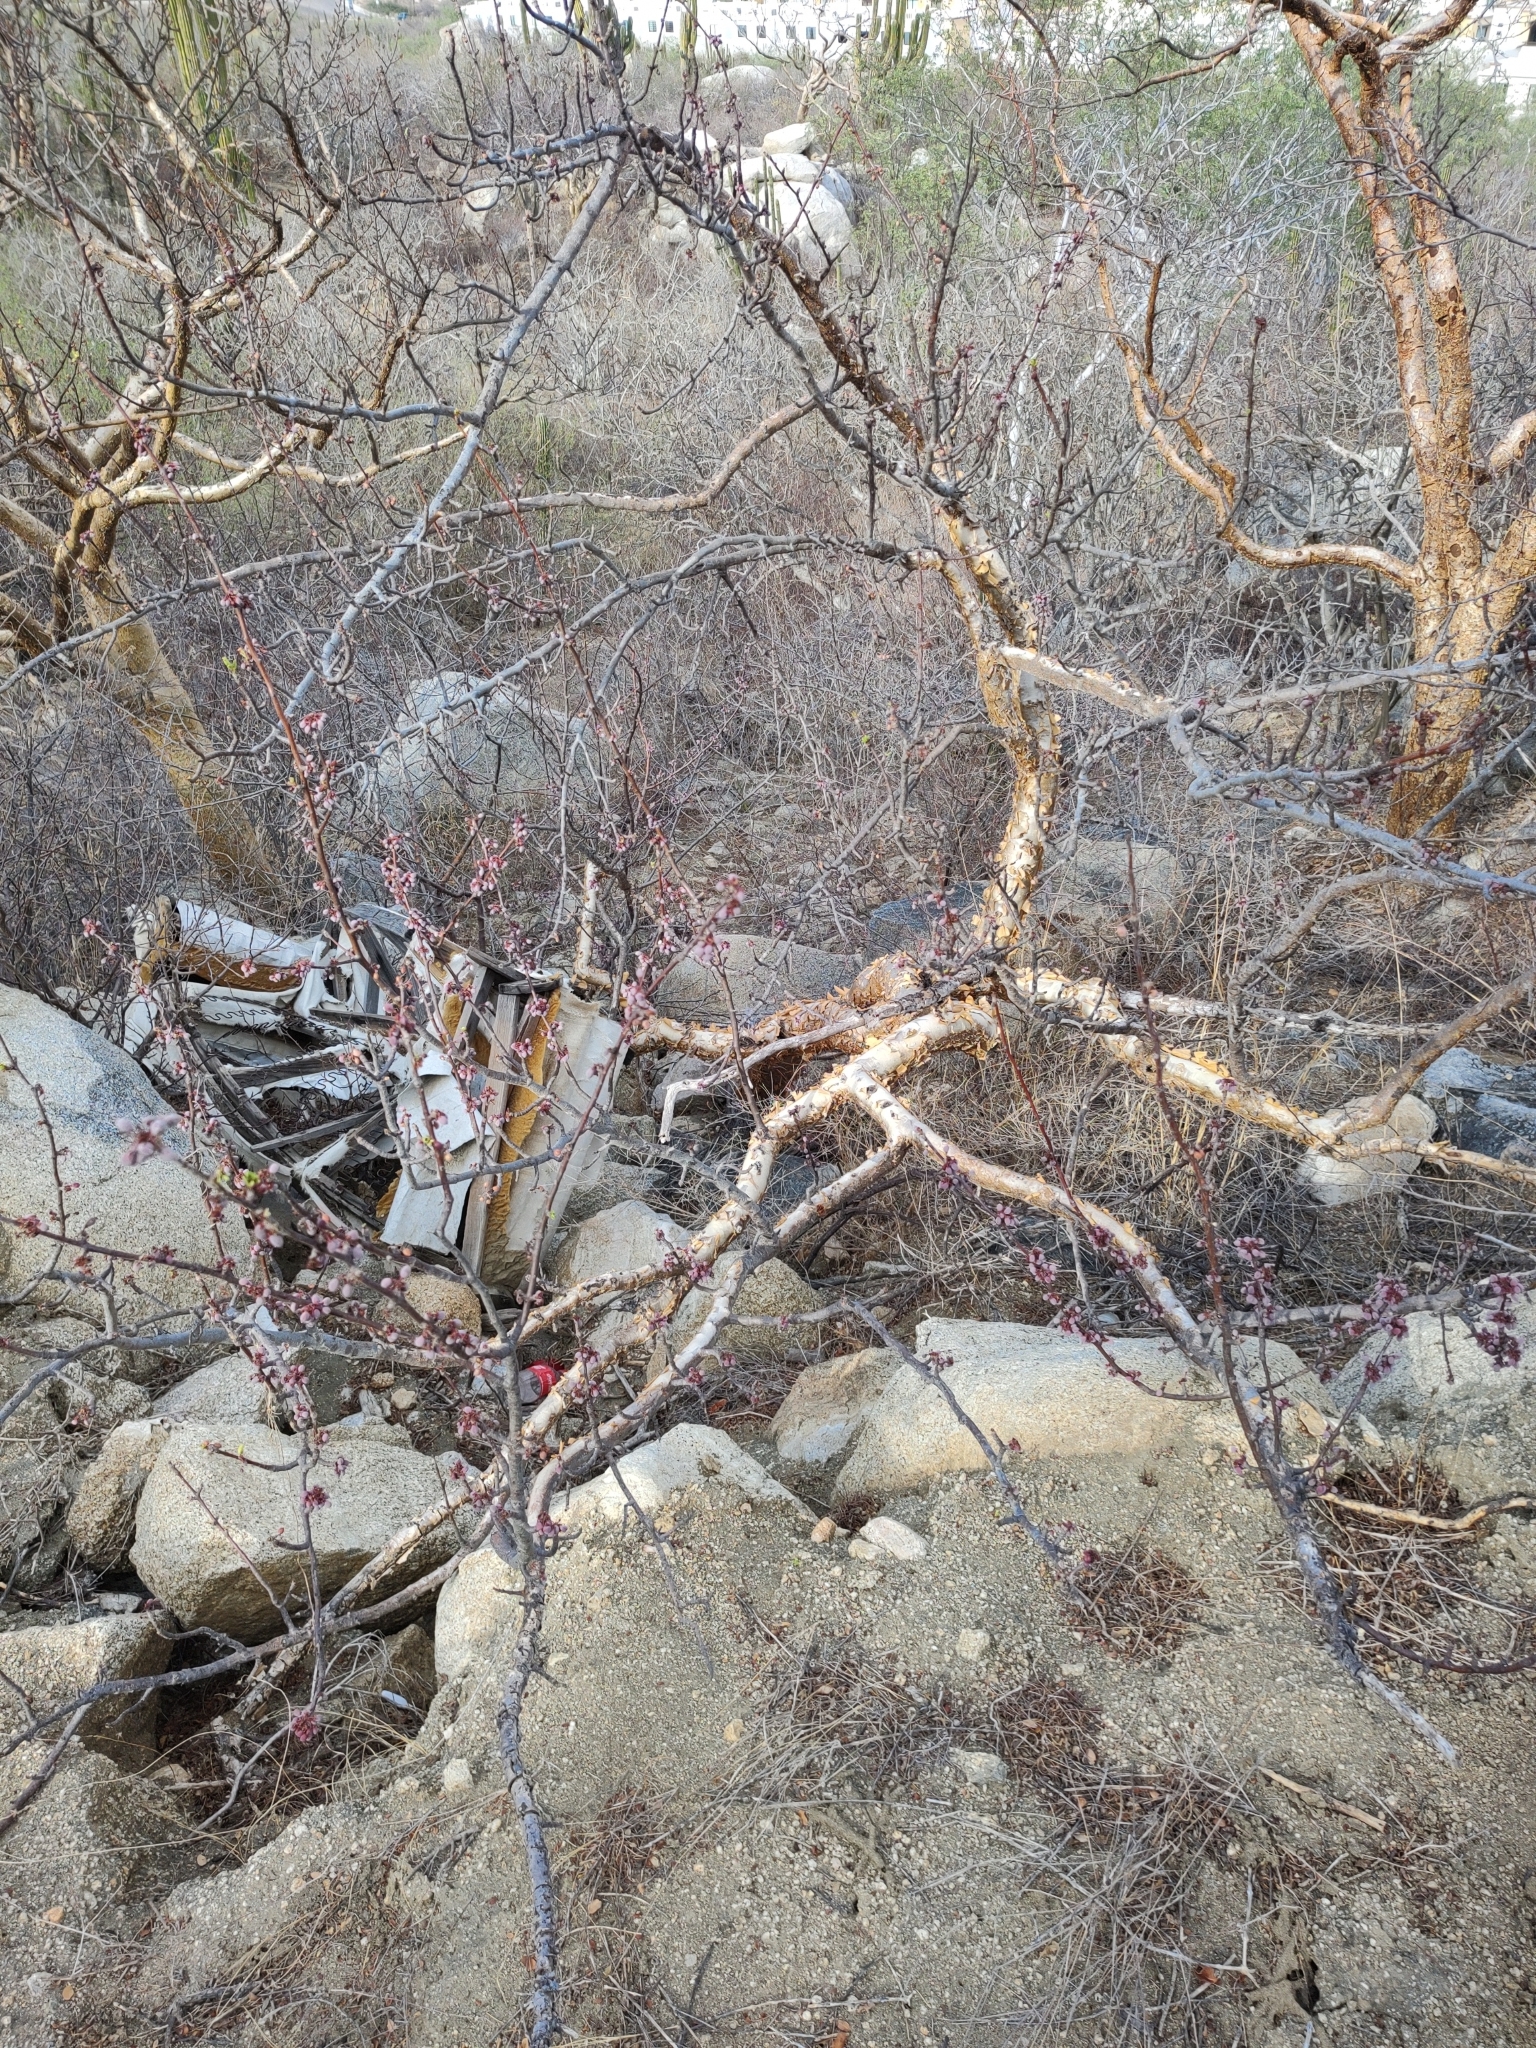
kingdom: Plantae
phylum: Tracheophyta
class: Magnoliopsida
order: Sapindales
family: Burseraceae
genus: Bursera
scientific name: Bursera microphylla
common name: Elephant tree
